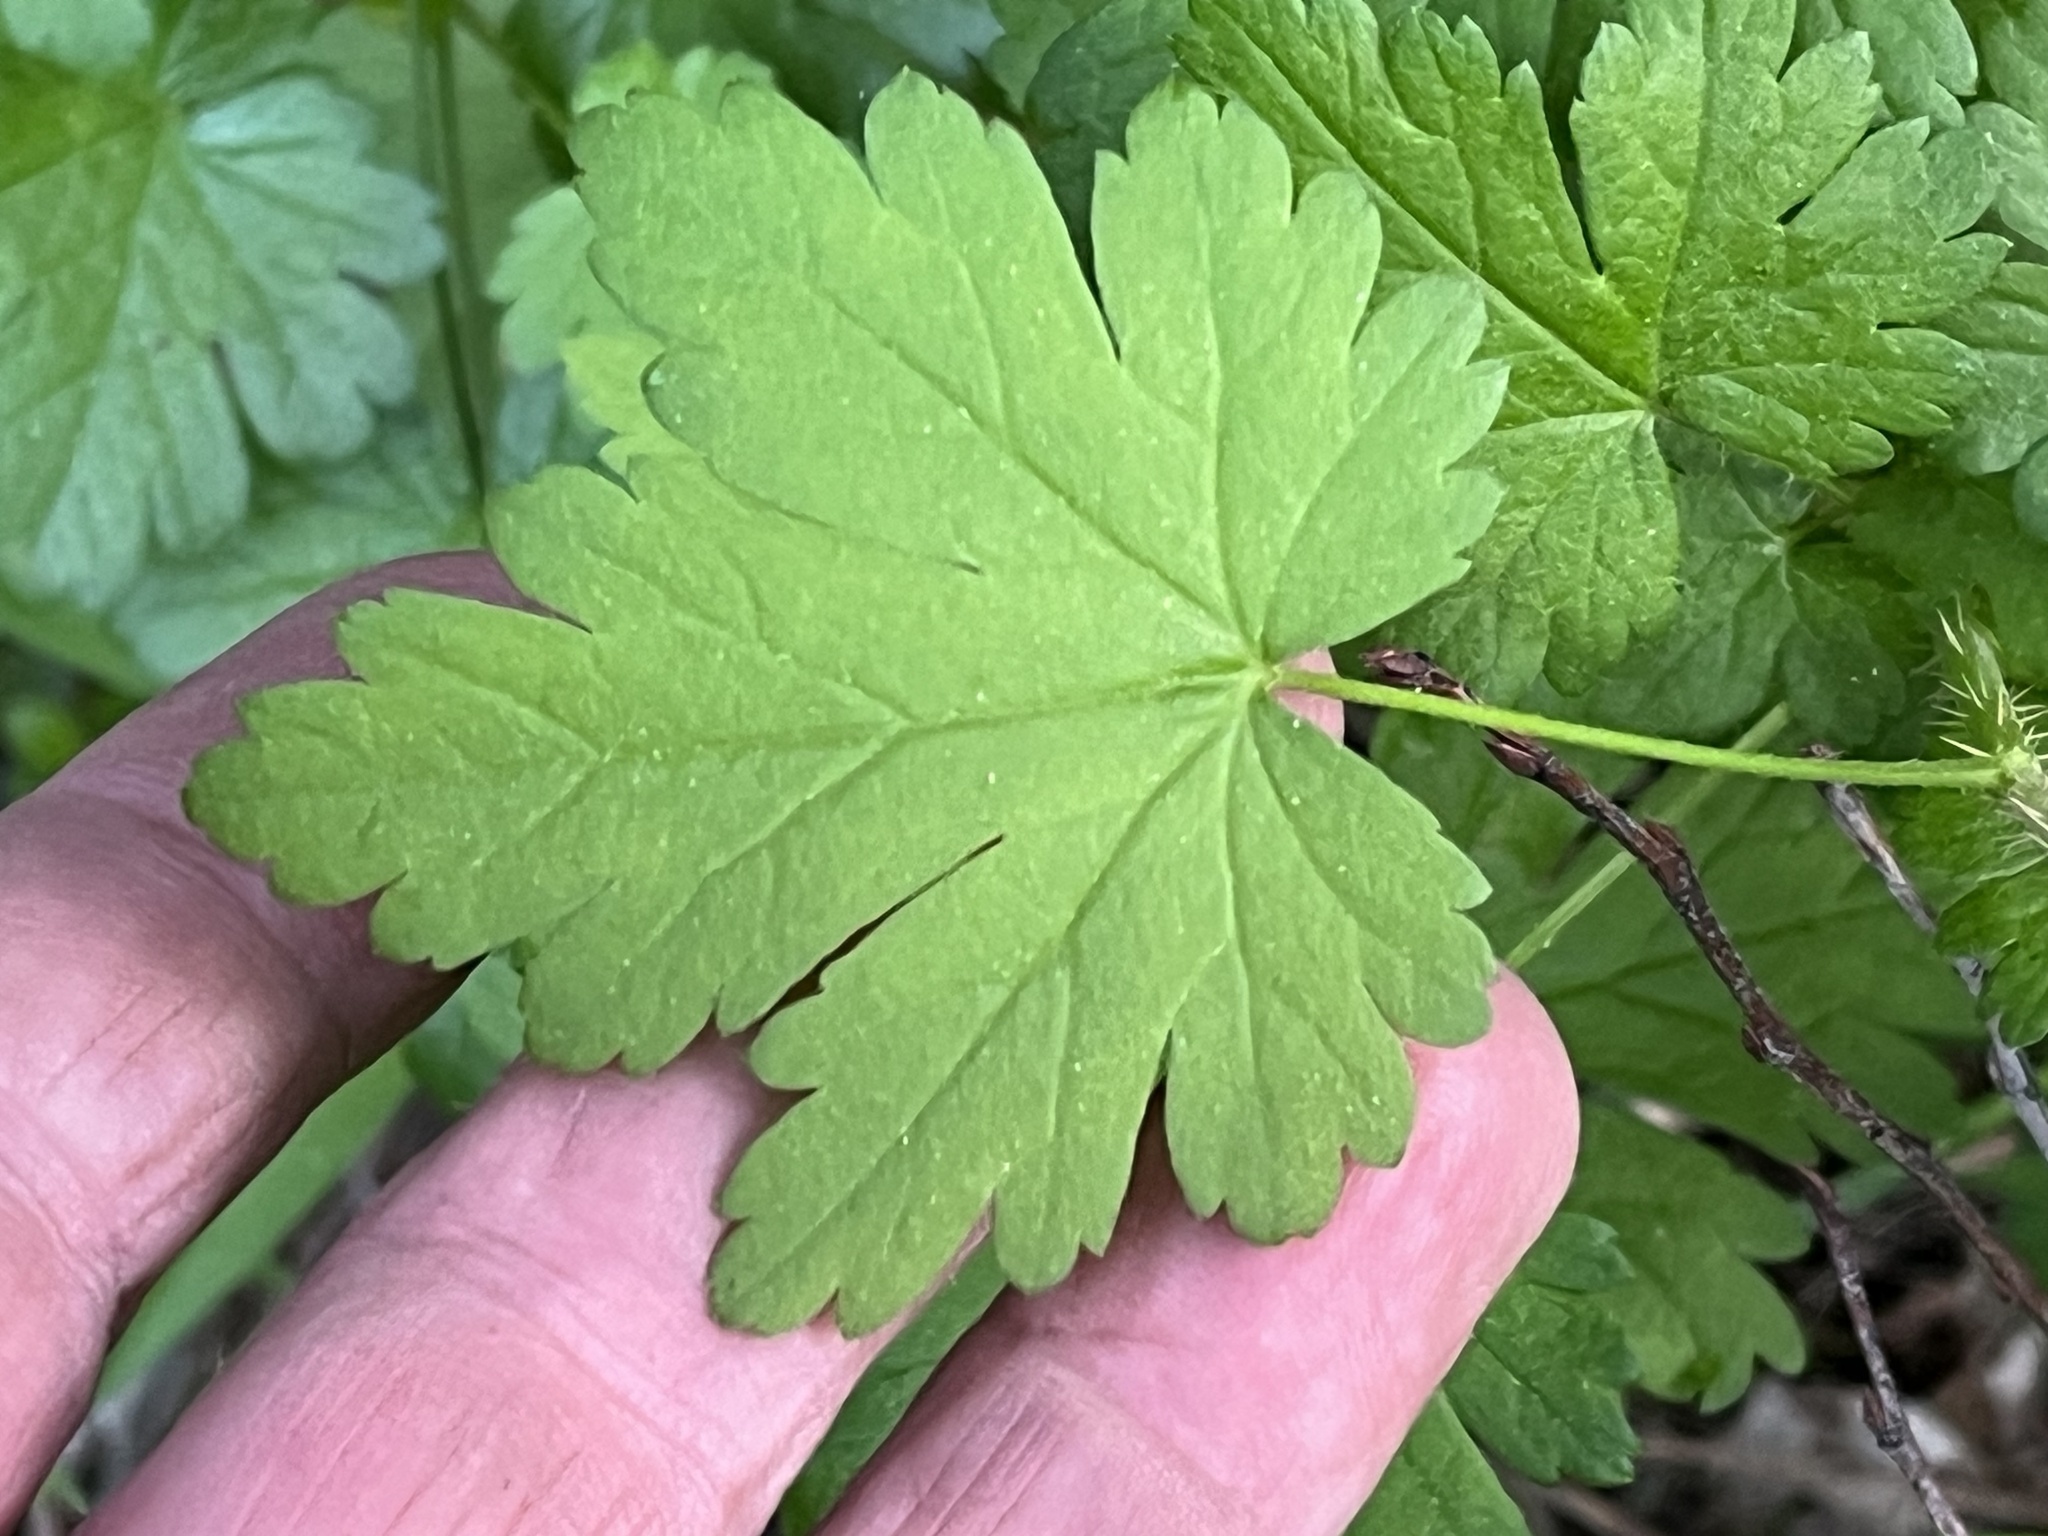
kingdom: Plantae
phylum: Tracheophyta
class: Magnoliopsida
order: Saxifragales
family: Grossulariaceae
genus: Ribes
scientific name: Ribes lacustre
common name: Black gooseberry
